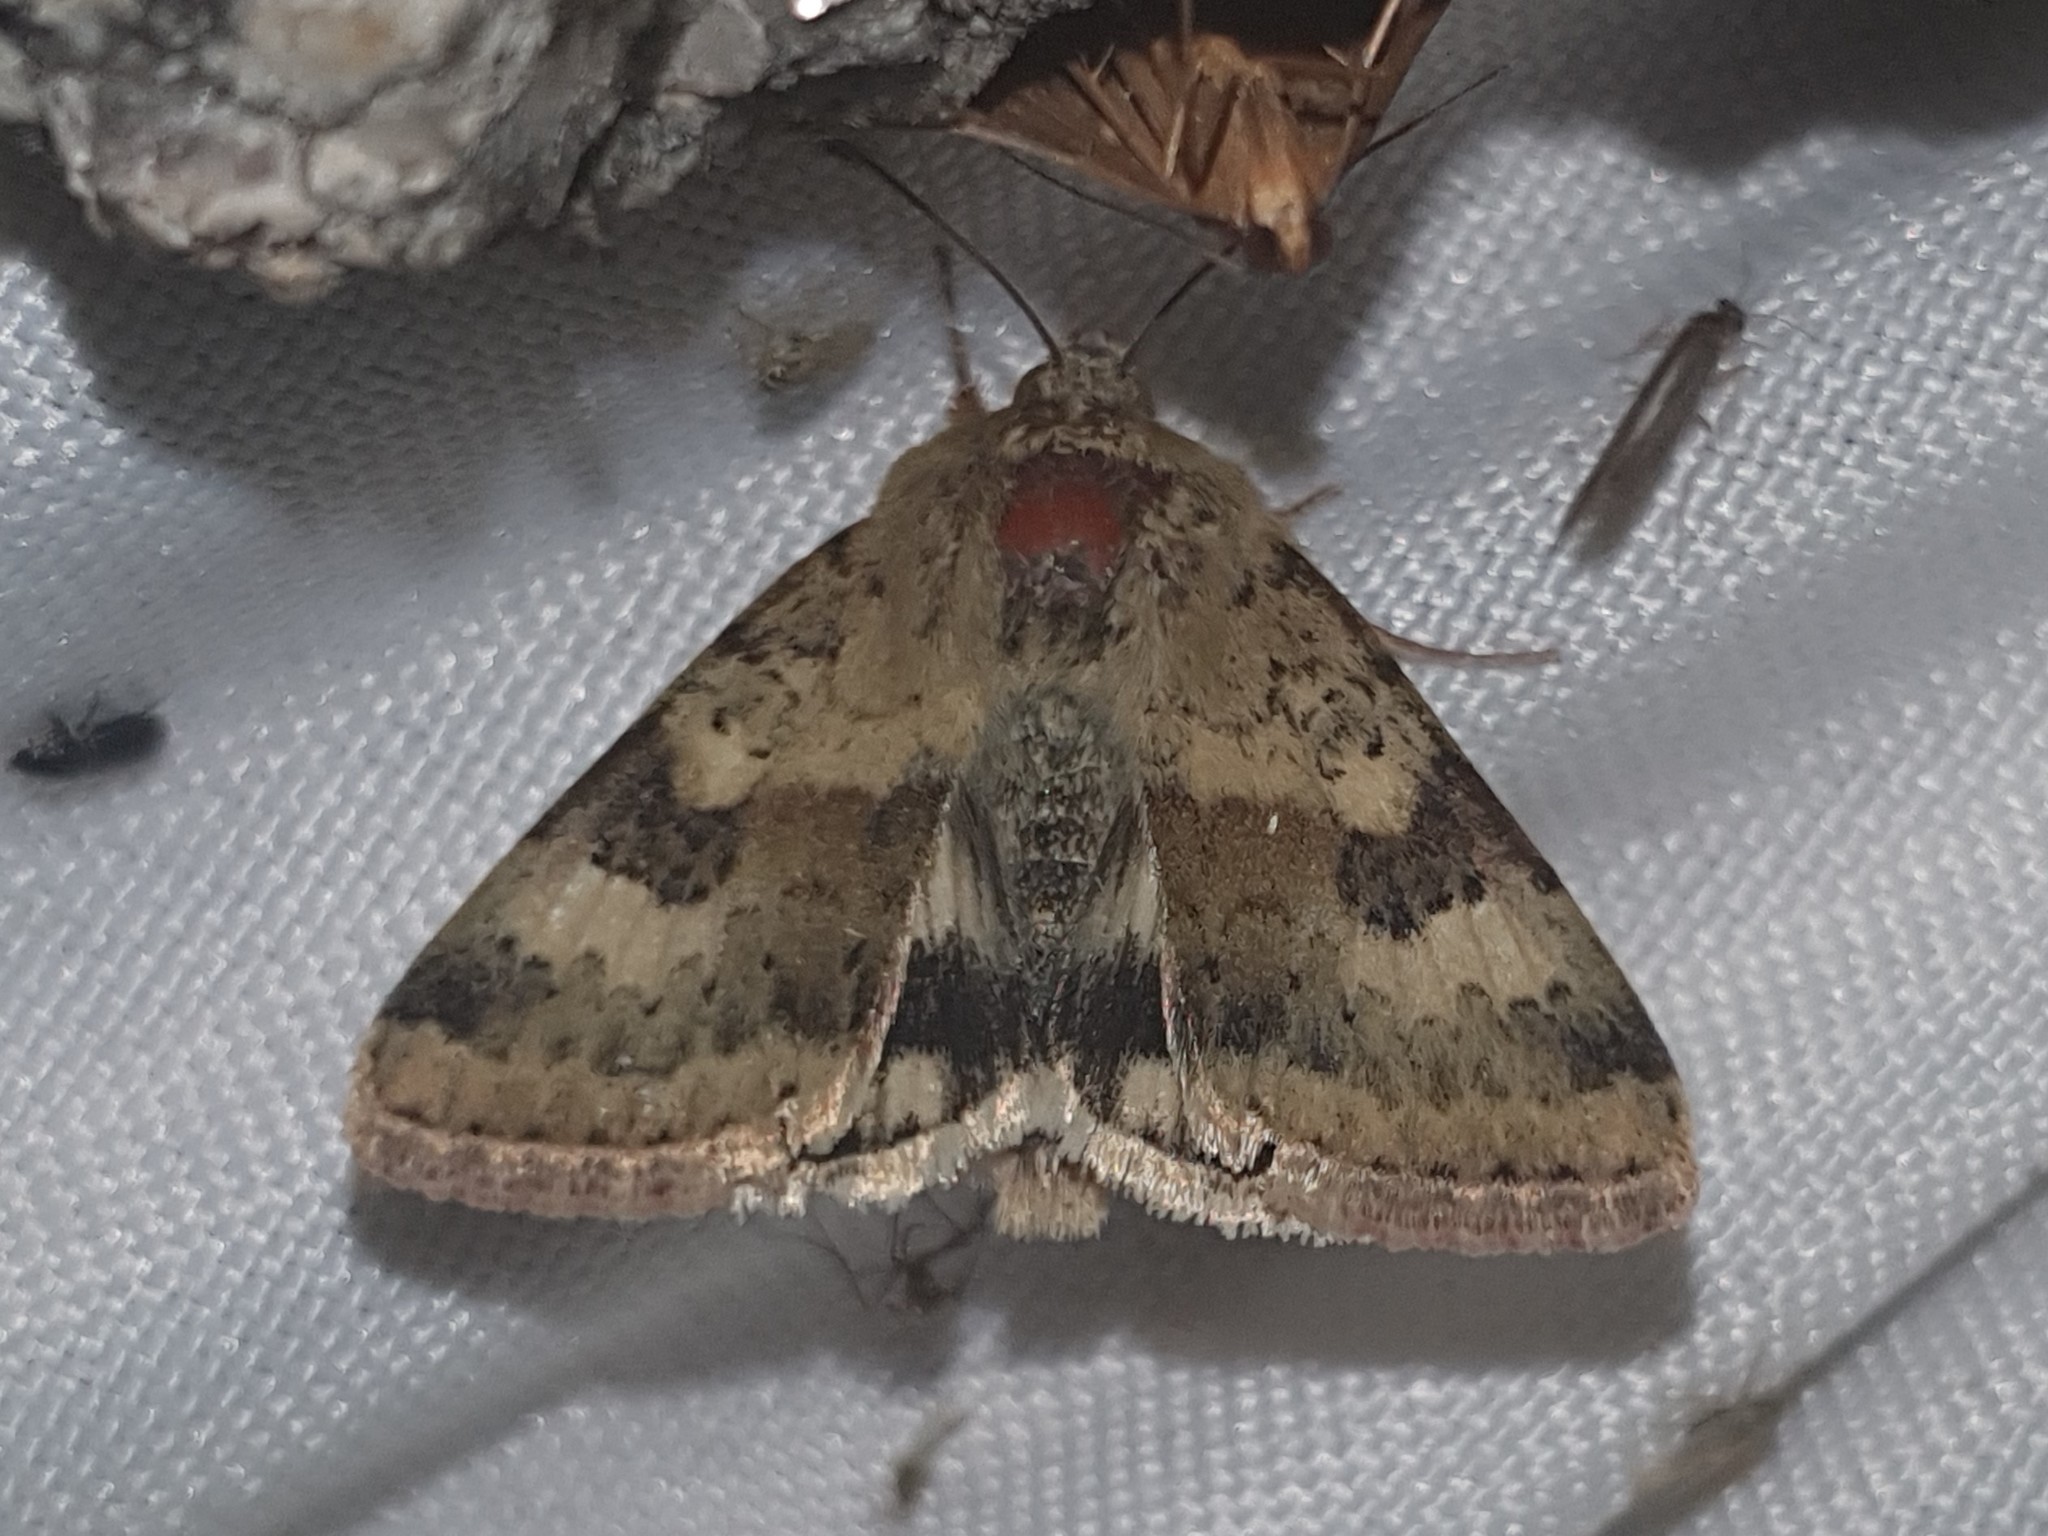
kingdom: Animalia
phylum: Arthropoda
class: Insecta
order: Lepidoptera
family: Noctuidae
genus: Heliothis
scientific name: Heliothis viriplaca
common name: Marbled clover
